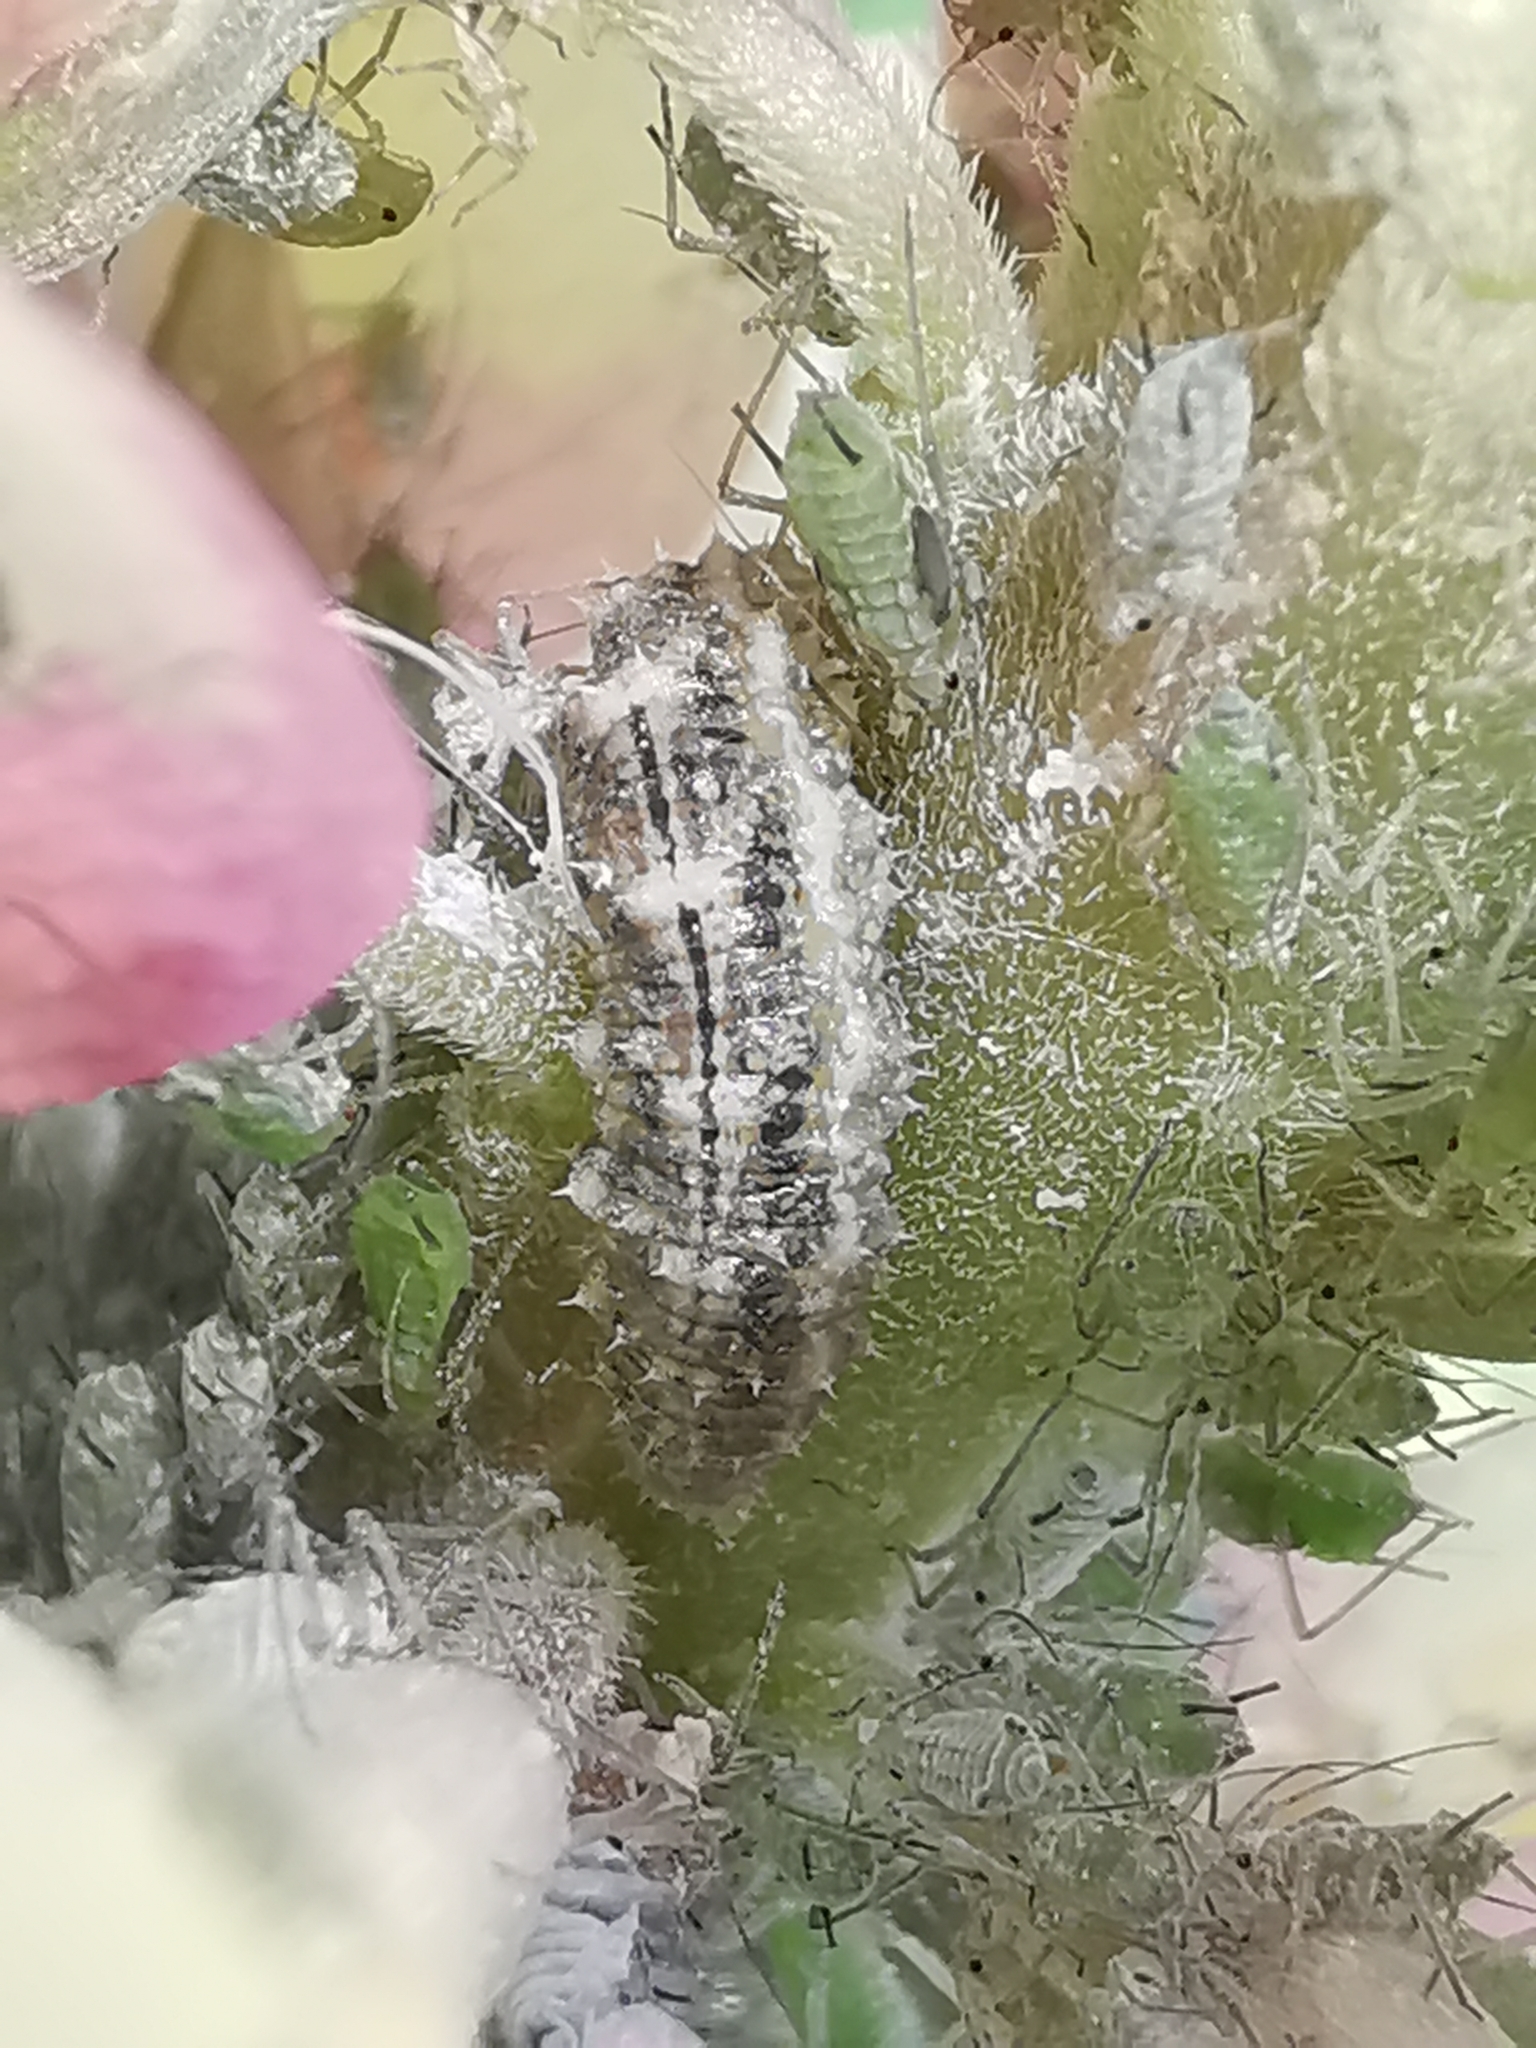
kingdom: Animalia
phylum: Arthropoda
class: Insecta
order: Diptera
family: Syrphidae
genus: Eupeodes
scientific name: Eupeodes
